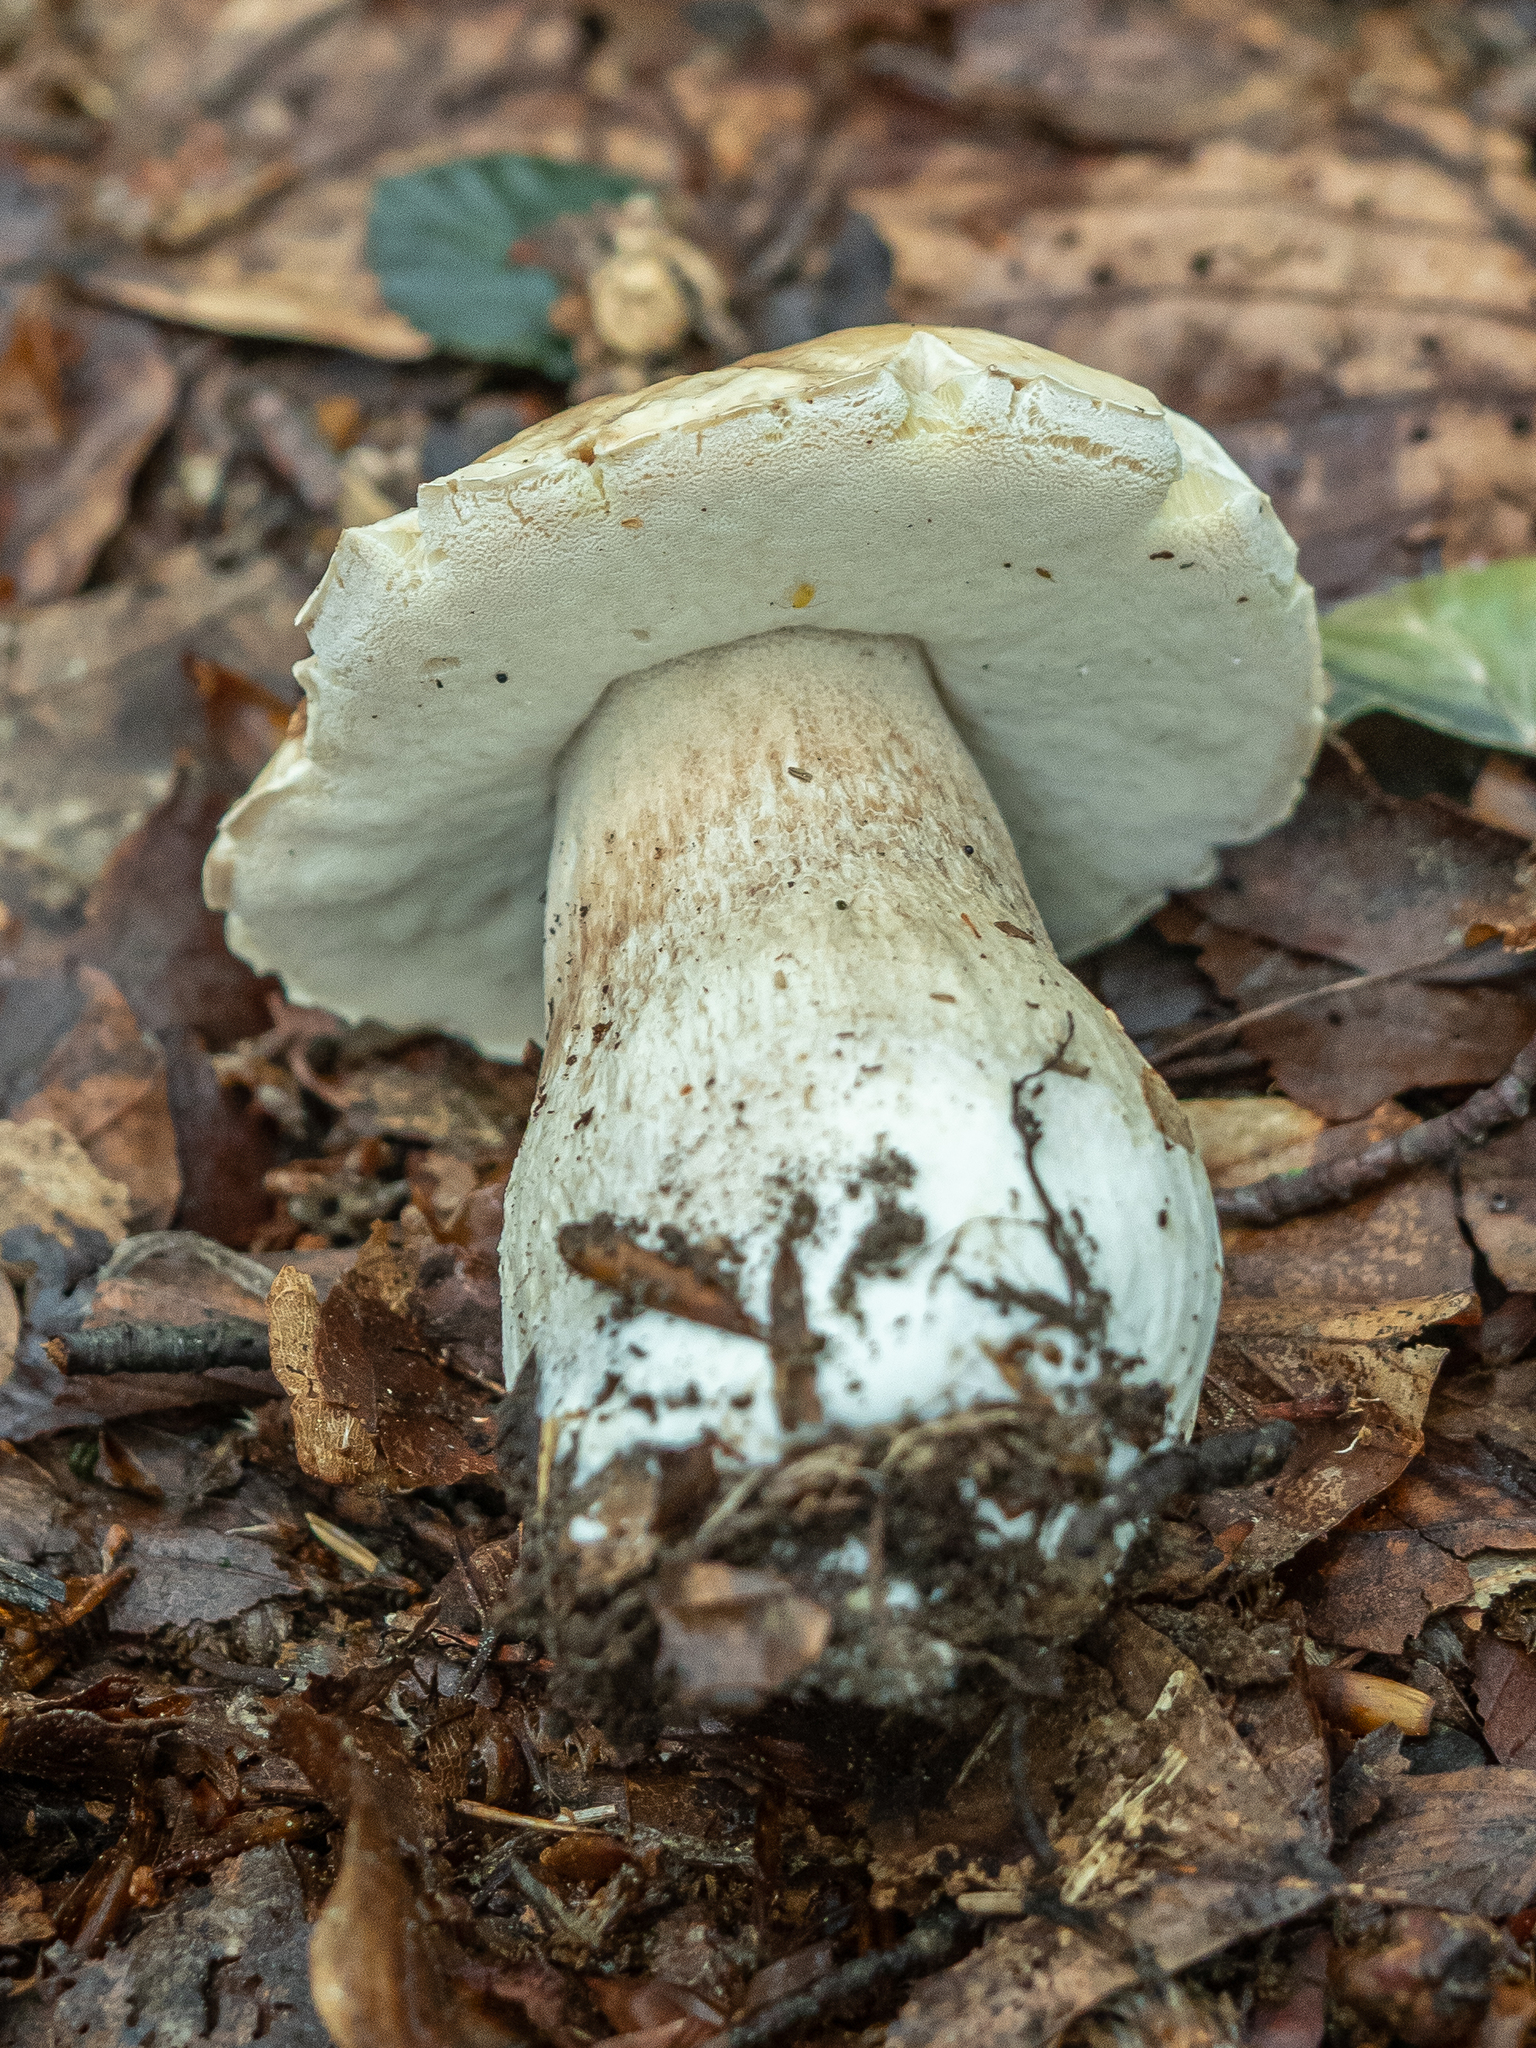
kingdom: Fungi
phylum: Basidiomycota
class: Agaricomycetes
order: Boletales
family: Boletaceae
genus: Boletus
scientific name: Boletus edulis
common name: Cep
